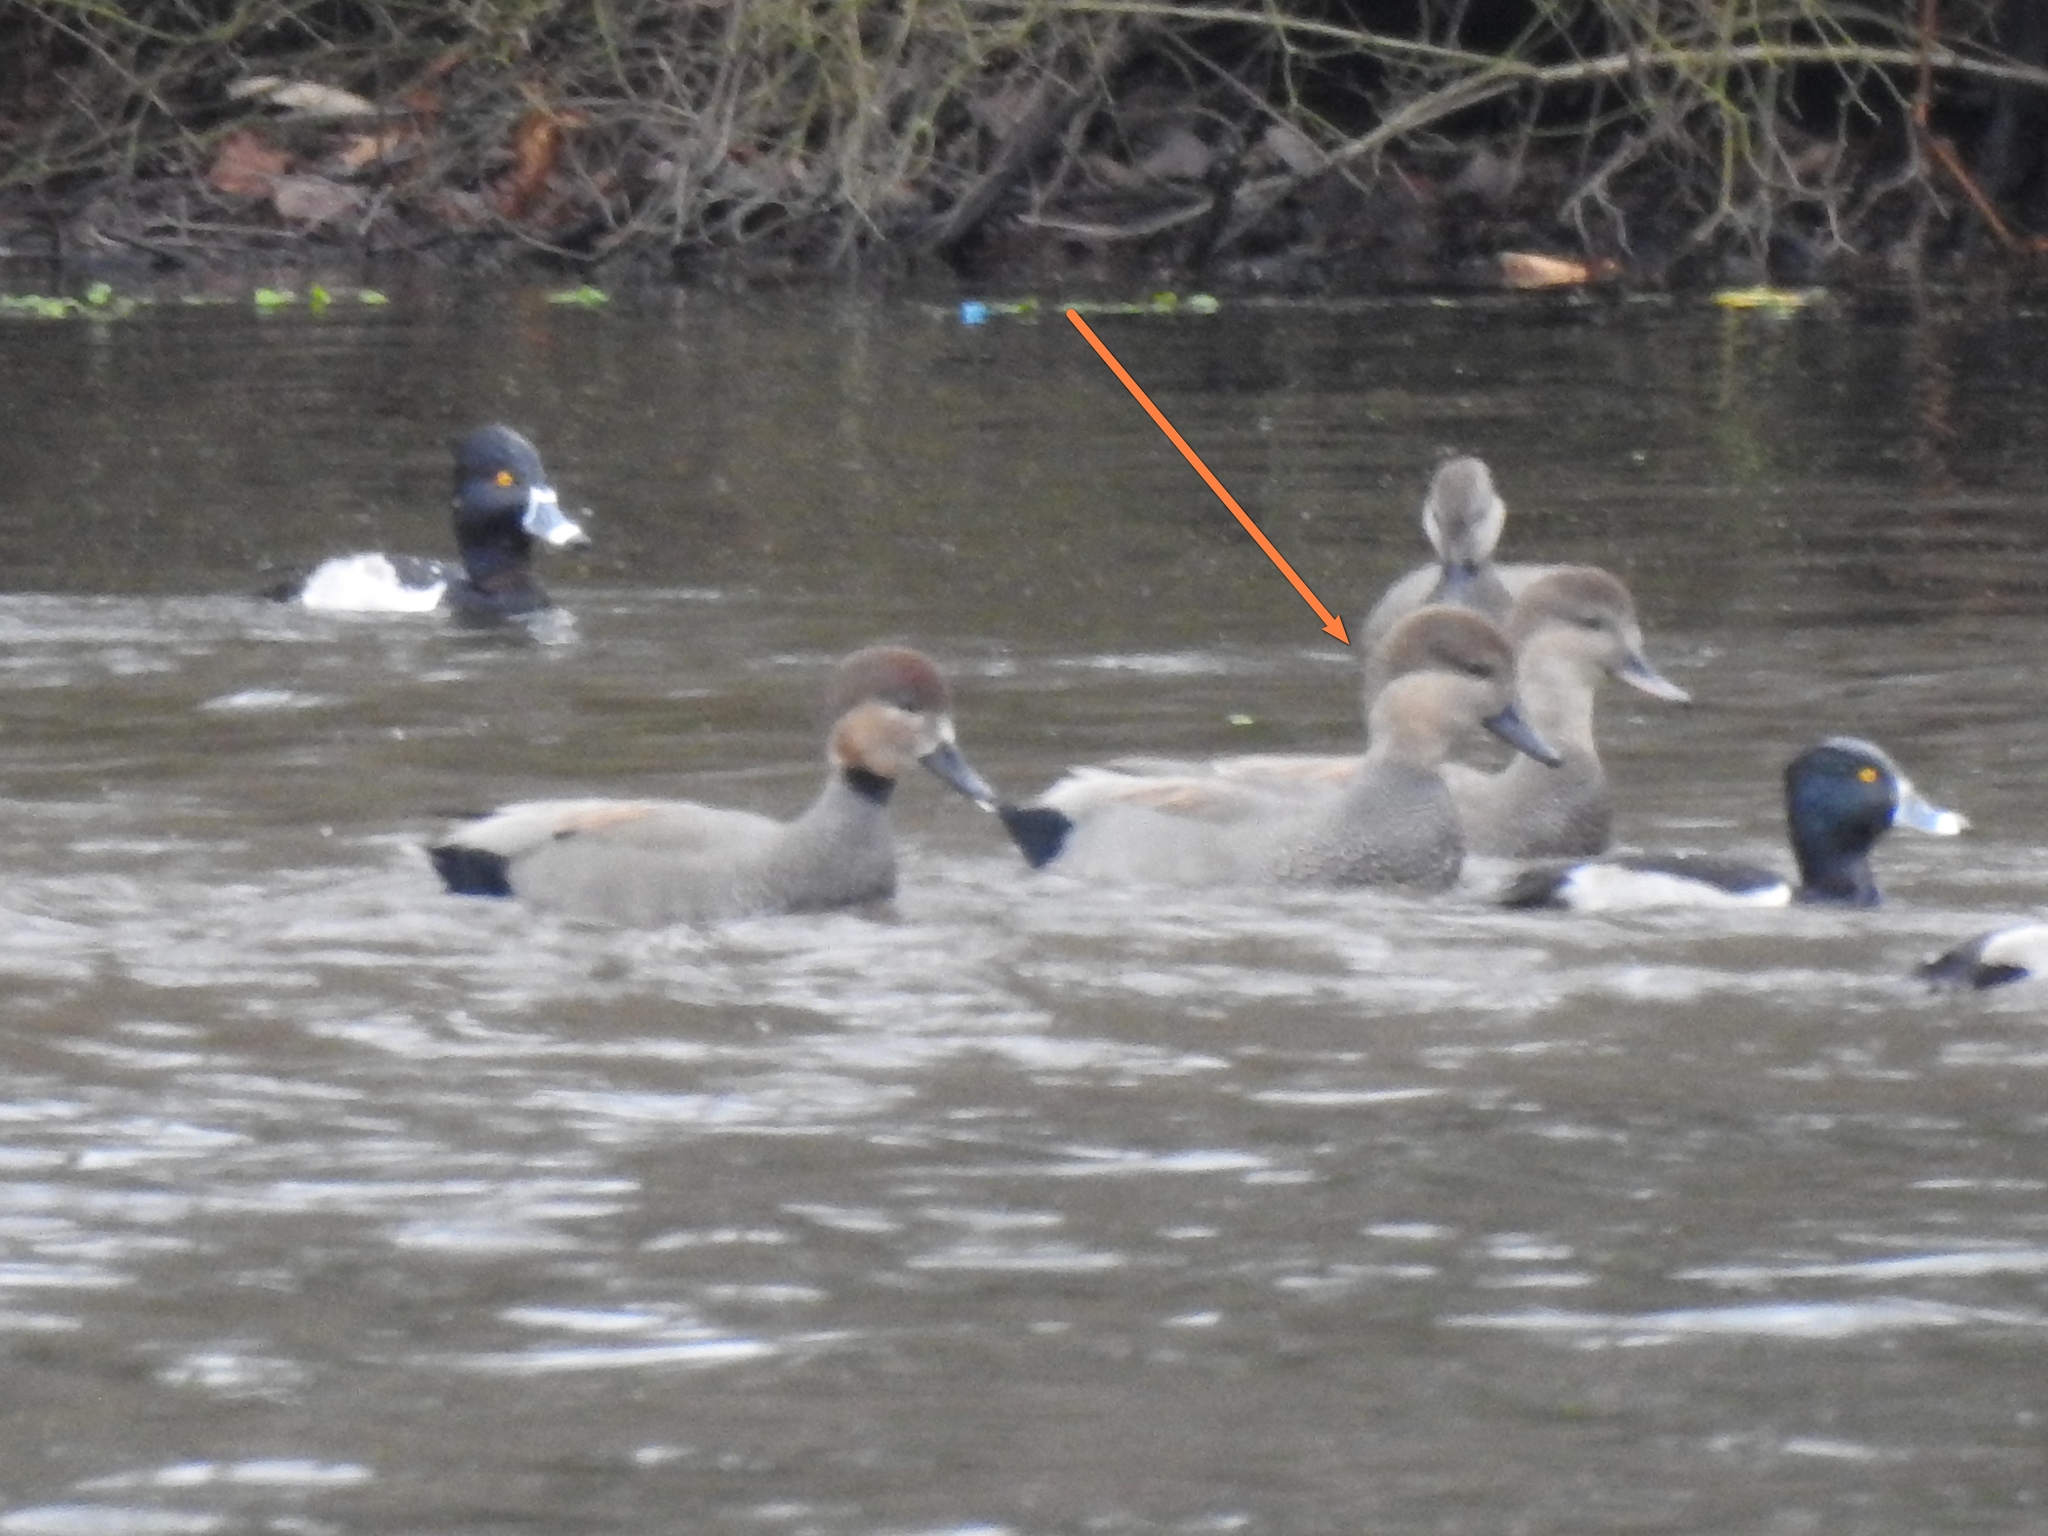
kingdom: Animalia
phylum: Chordata
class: Aves
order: Anseriformes
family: Anatidae
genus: Mareca
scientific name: Mareca strepera
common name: Gadwall
